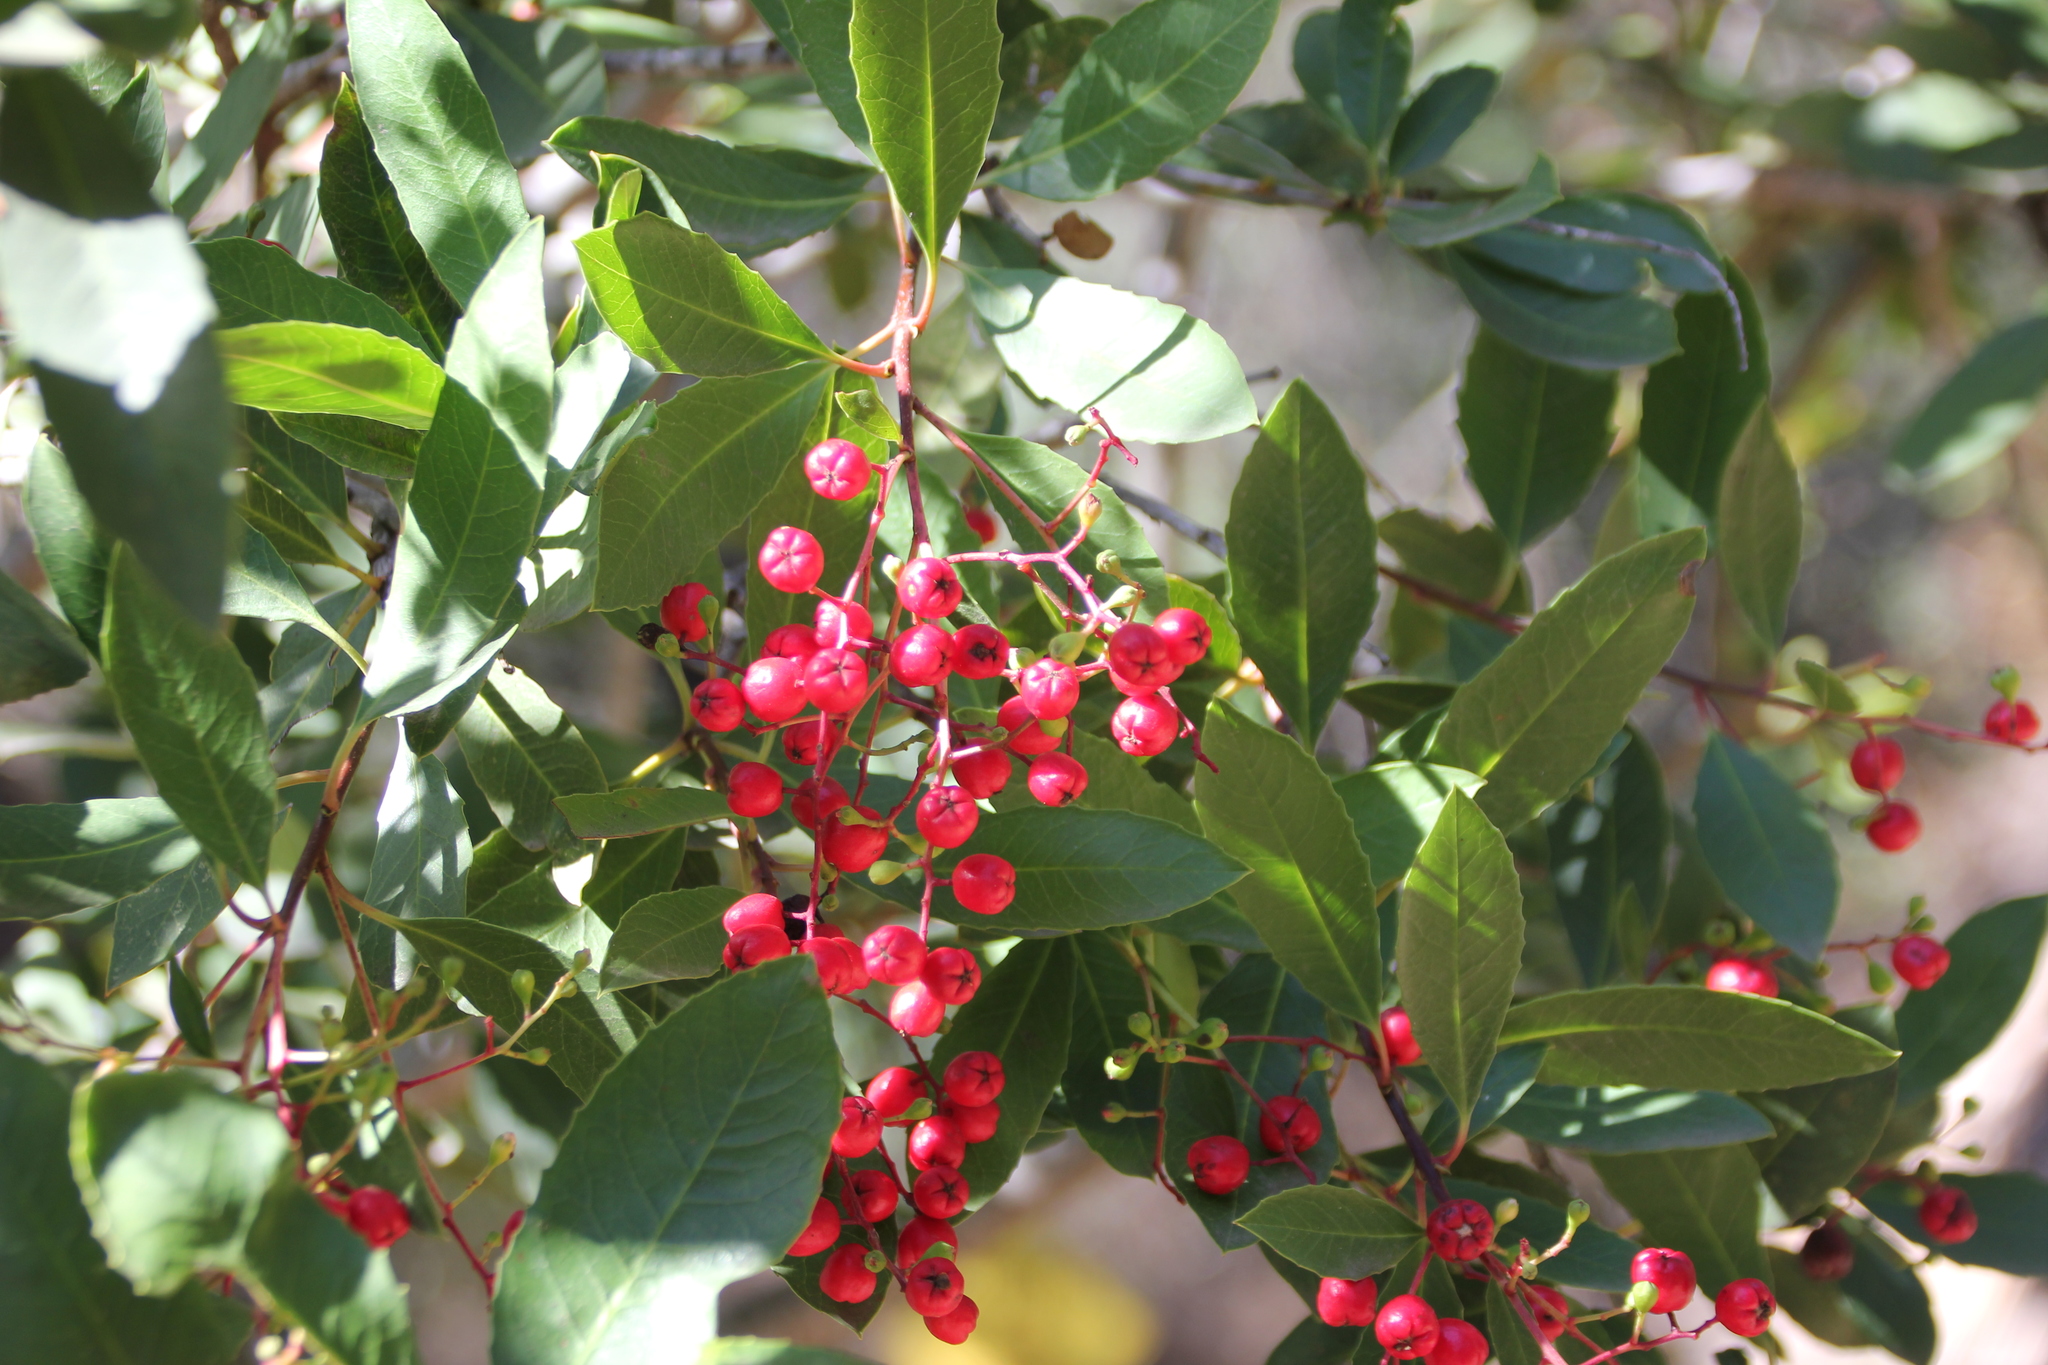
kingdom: Plantae
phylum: Tracheophyta
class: Magnoliopsida
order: Rosales
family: Rosaceae
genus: Heteromeles
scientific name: Heteromeles arbutifolia
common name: California-holly
